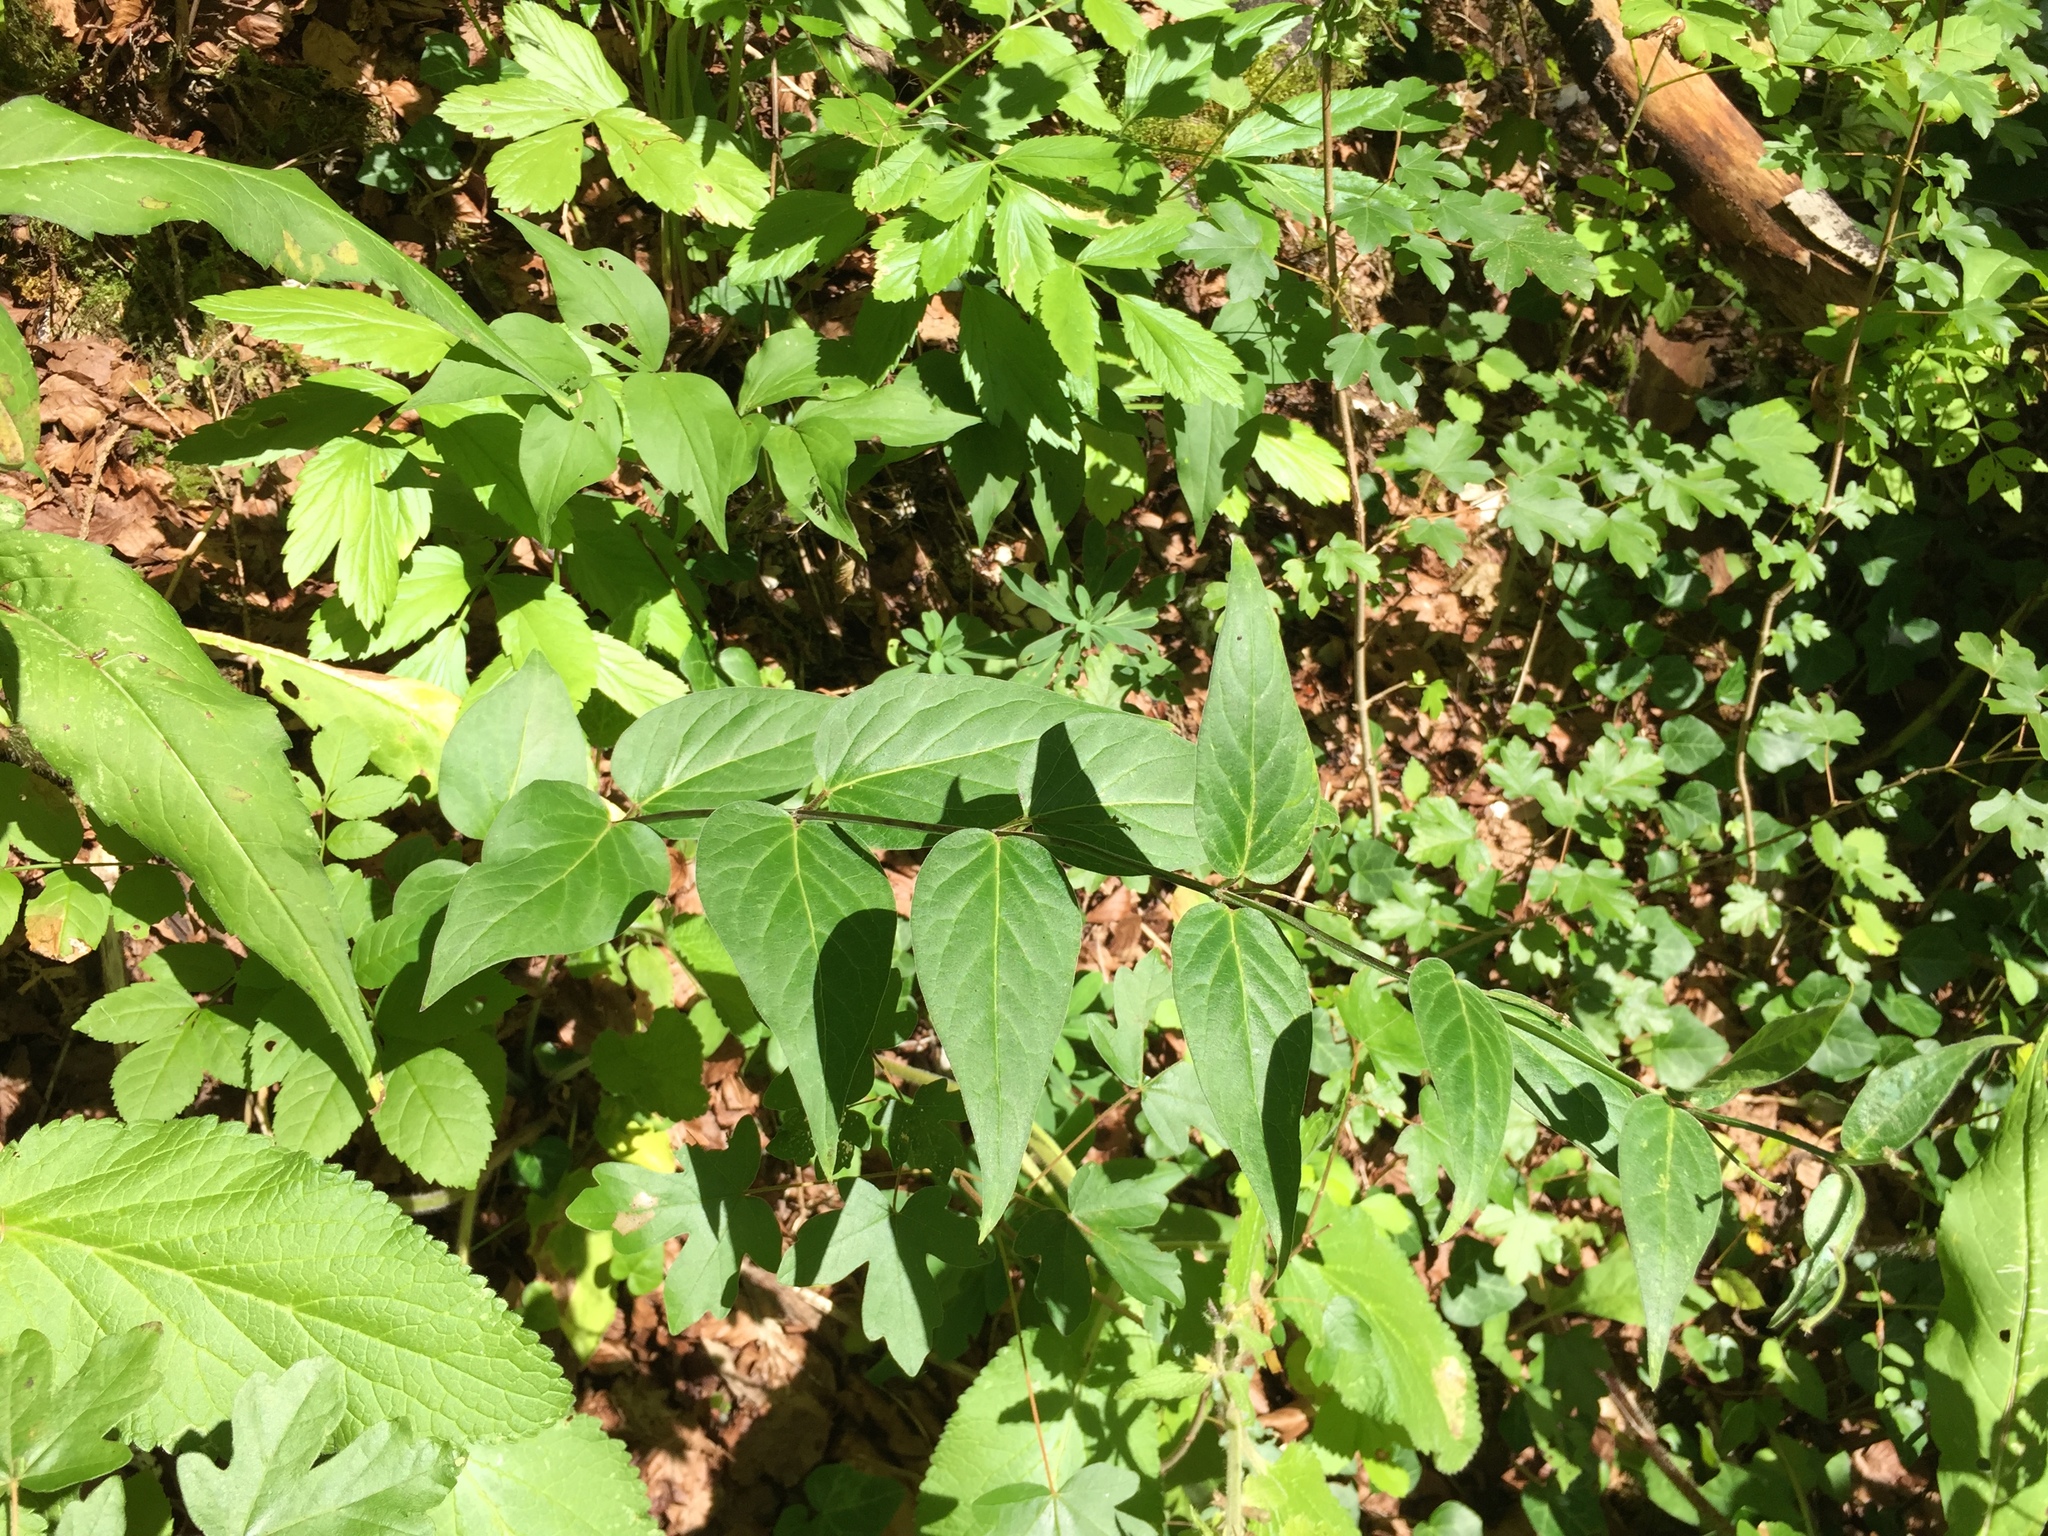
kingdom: Plantae
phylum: Tracheophyta
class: Magnoliopsida
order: Gentianales
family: Apocynaceae
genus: Vincetoxicum
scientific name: Vincetoxicum hirundinaria
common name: White swallowwort
